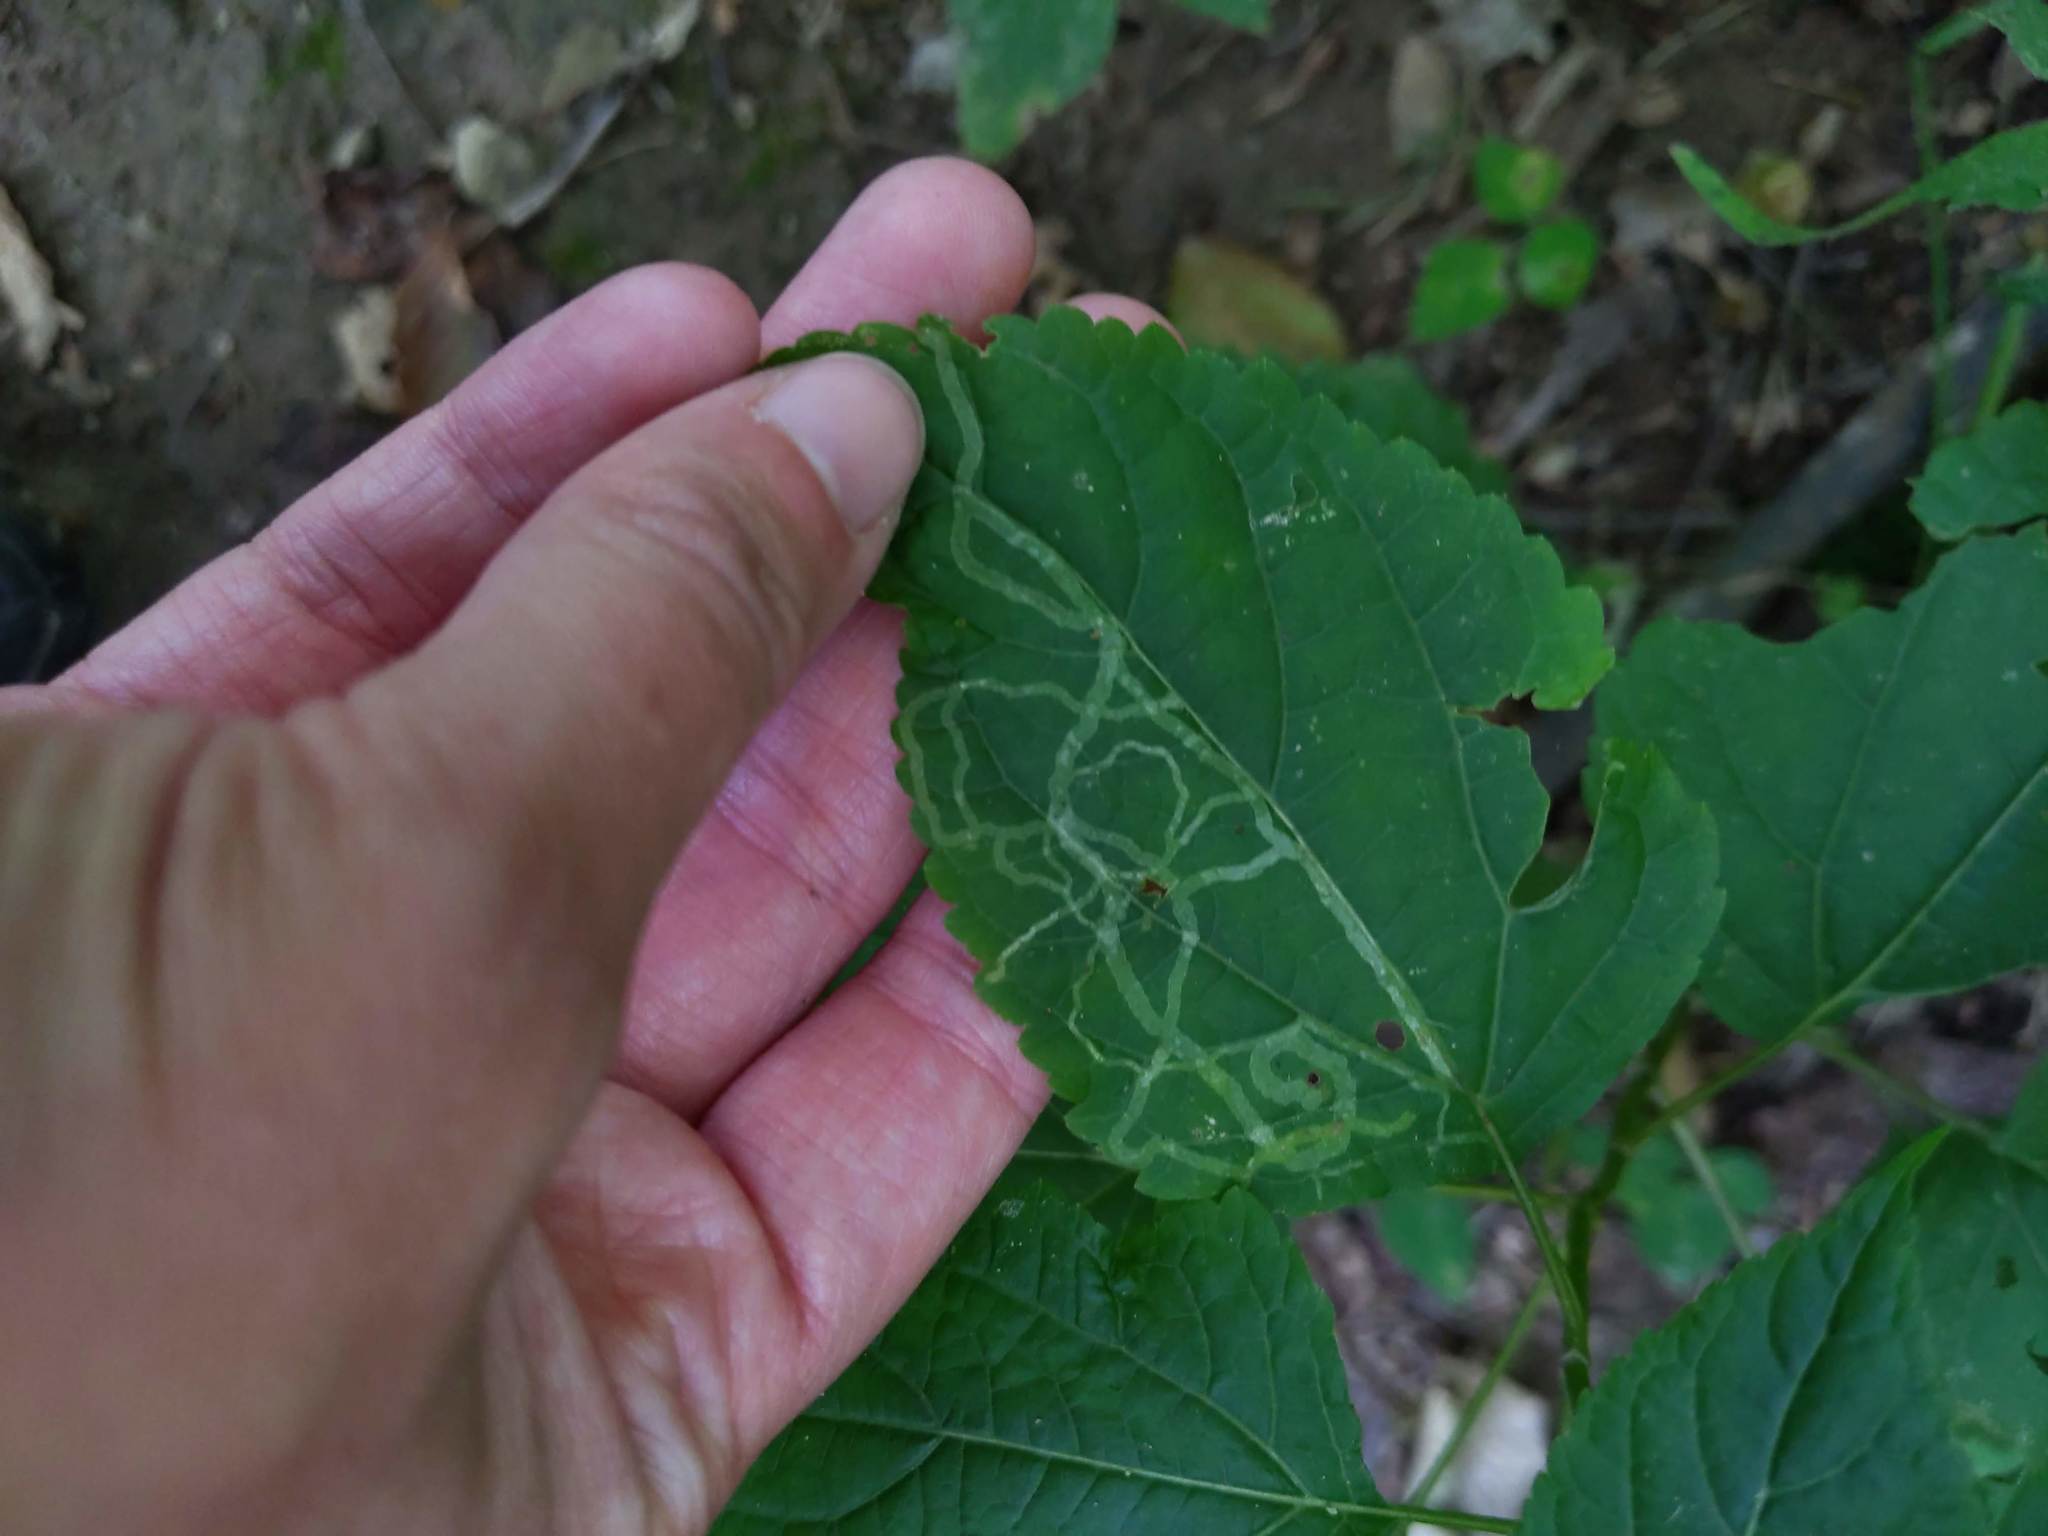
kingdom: Animalia
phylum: Arthropoda
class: Insecta
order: Diptera
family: Agromyzidae
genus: Liriomyza
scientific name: Liriomyza
